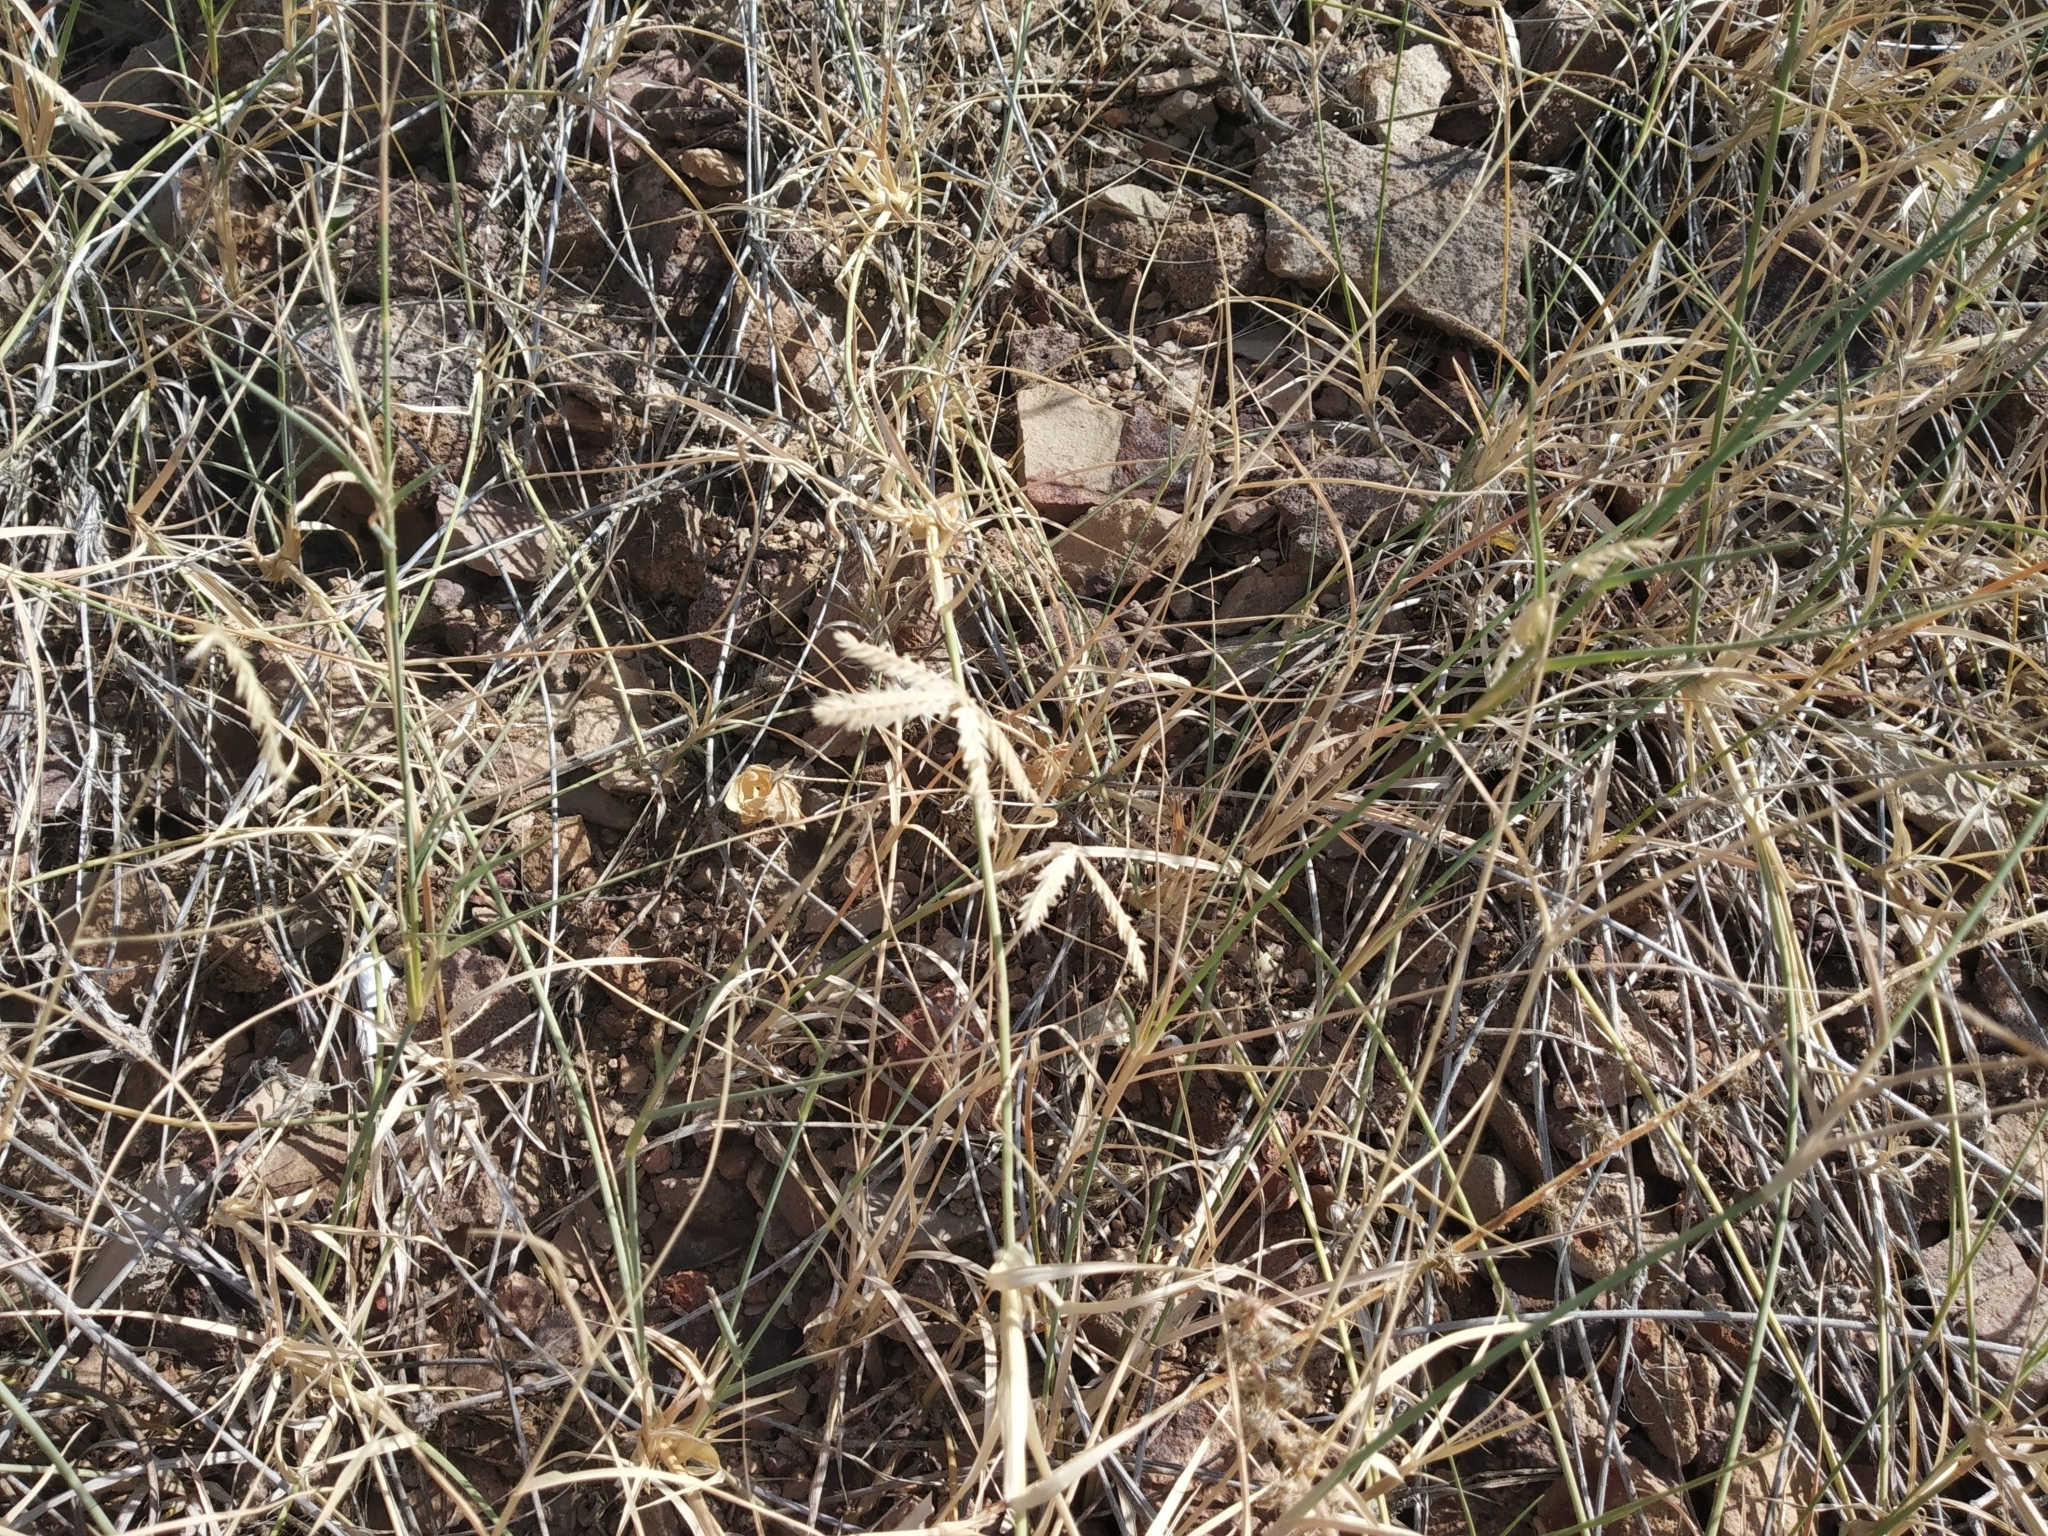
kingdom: Plantae
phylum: Tracheophyta
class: Liliopsida
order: Poales
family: Poaceae
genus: Dactyloctenium
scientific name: Dactyloctenium scindicum
